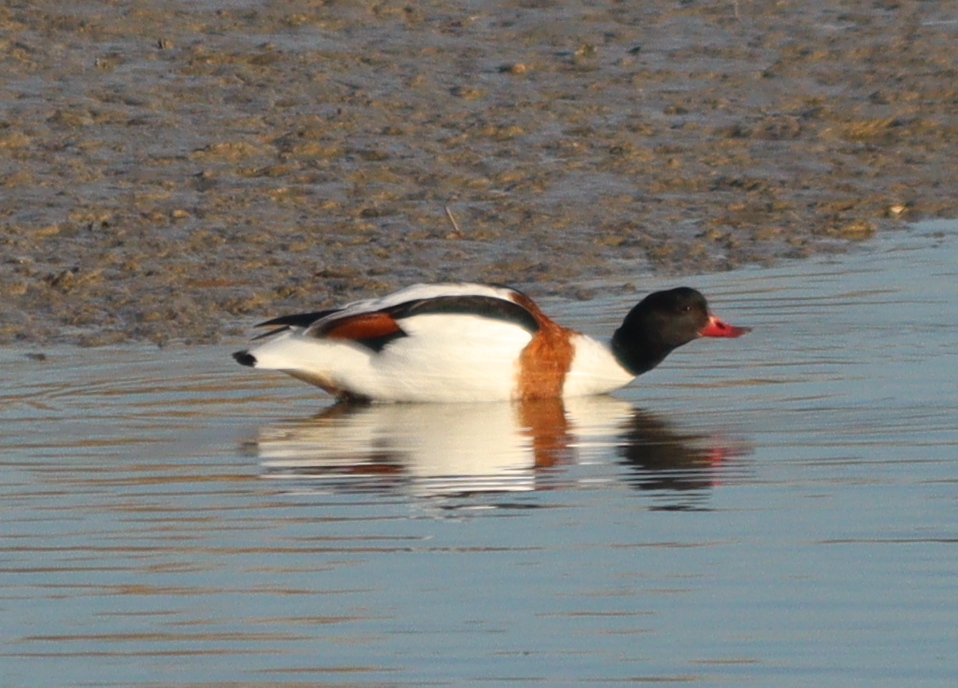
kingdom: Animalia
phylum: Chordata
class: Aves
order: Anseriformes
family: Anatidae
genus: Tadorna
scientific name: Tadorna tadorna
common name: Common shelduck
